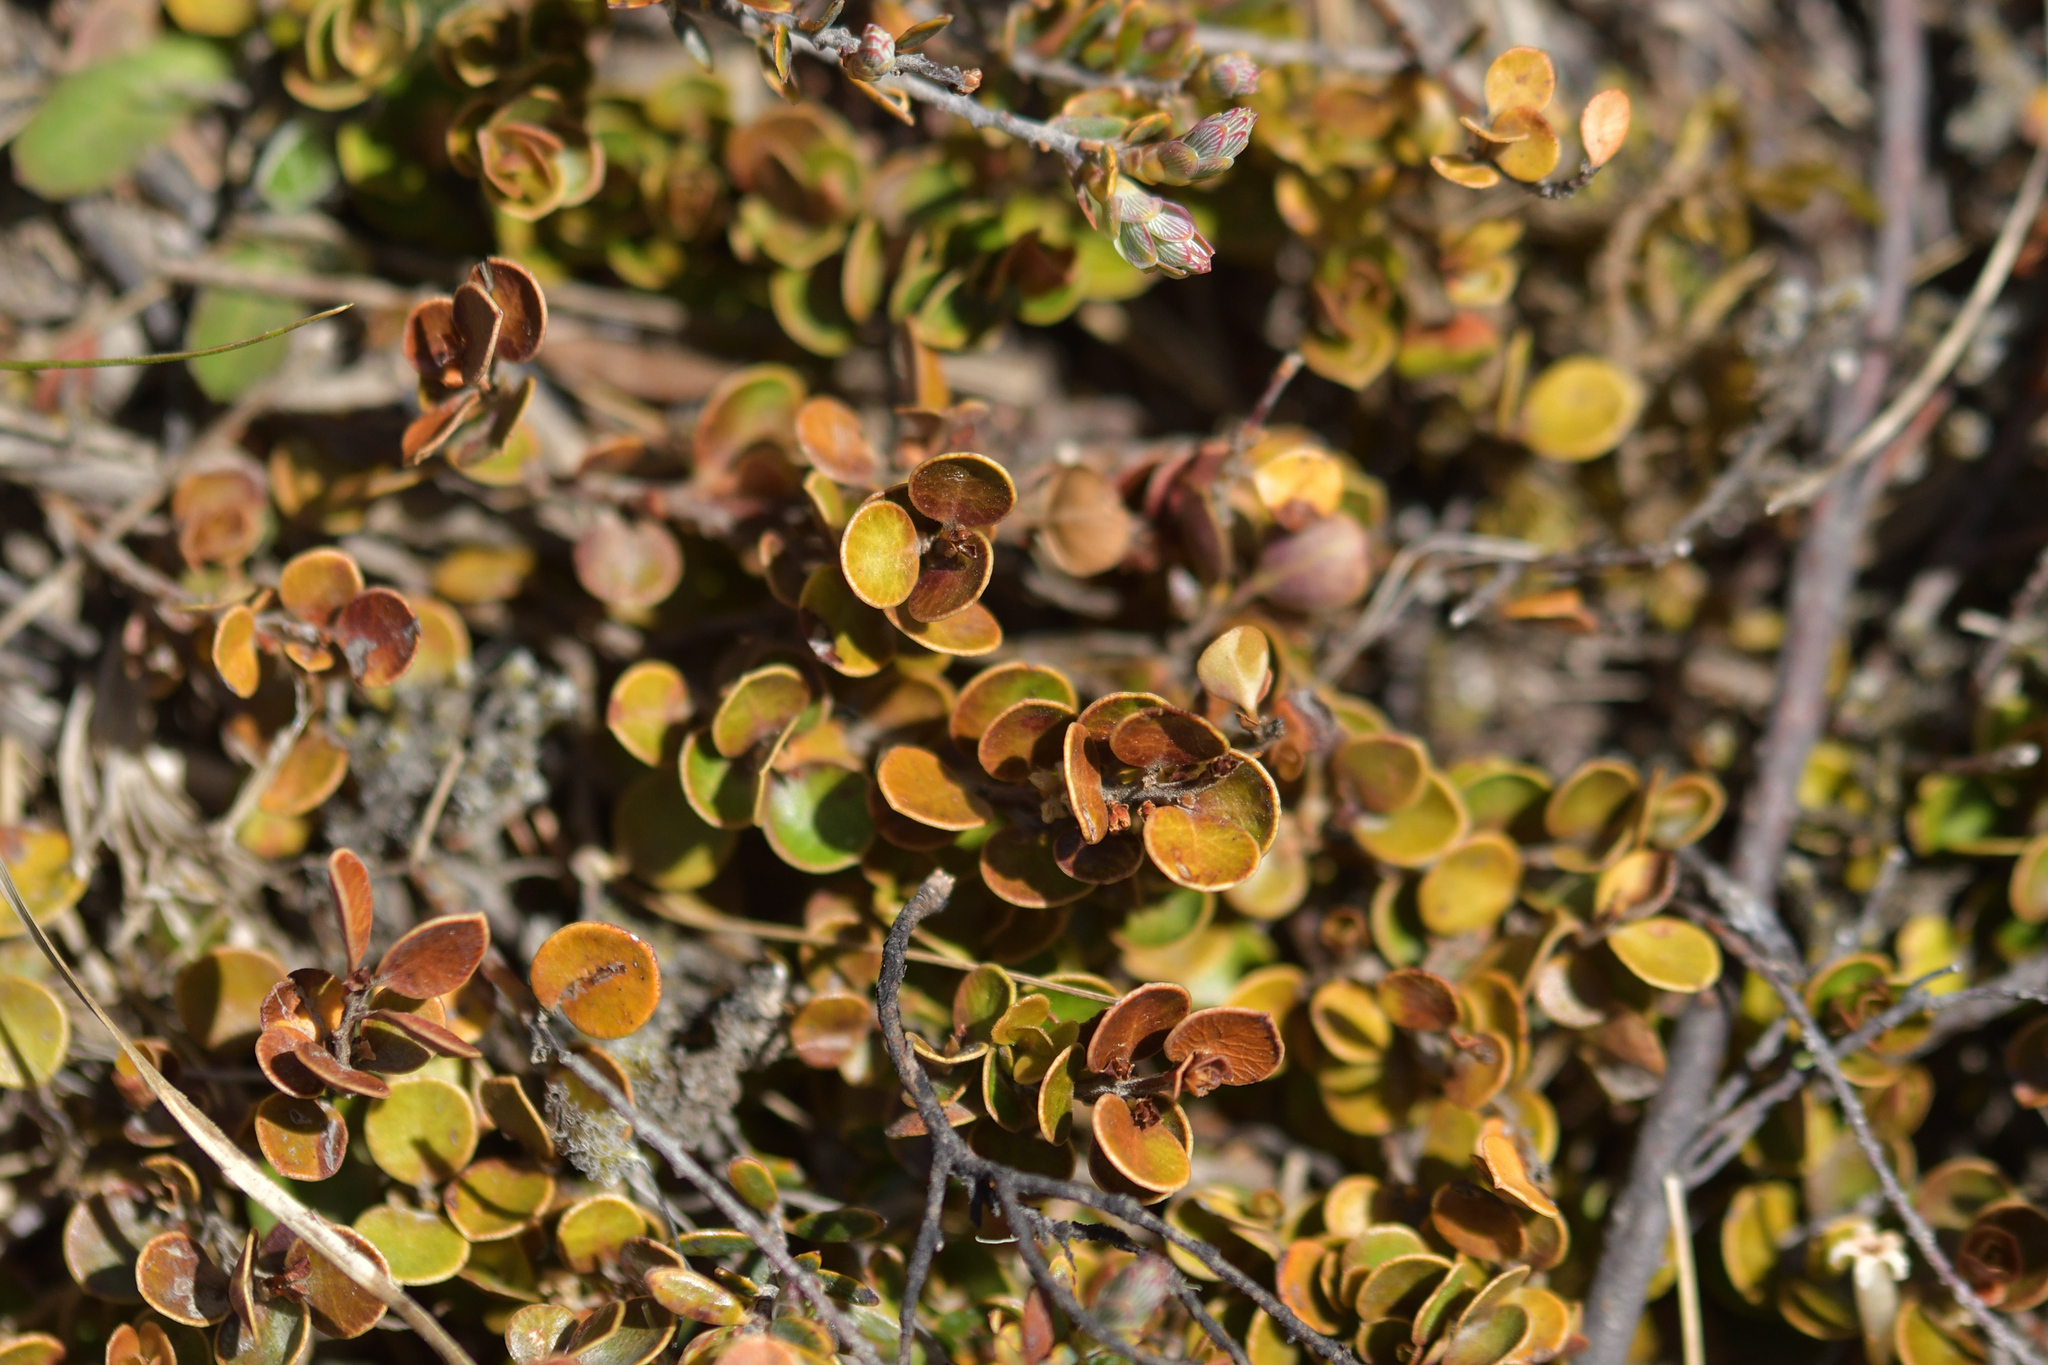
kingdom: Plantae
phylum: Tracheophyta
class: Magnoliopsida
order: Ericales
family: Primulaceae
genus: Myrsine
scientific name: Myrsine nummularia
